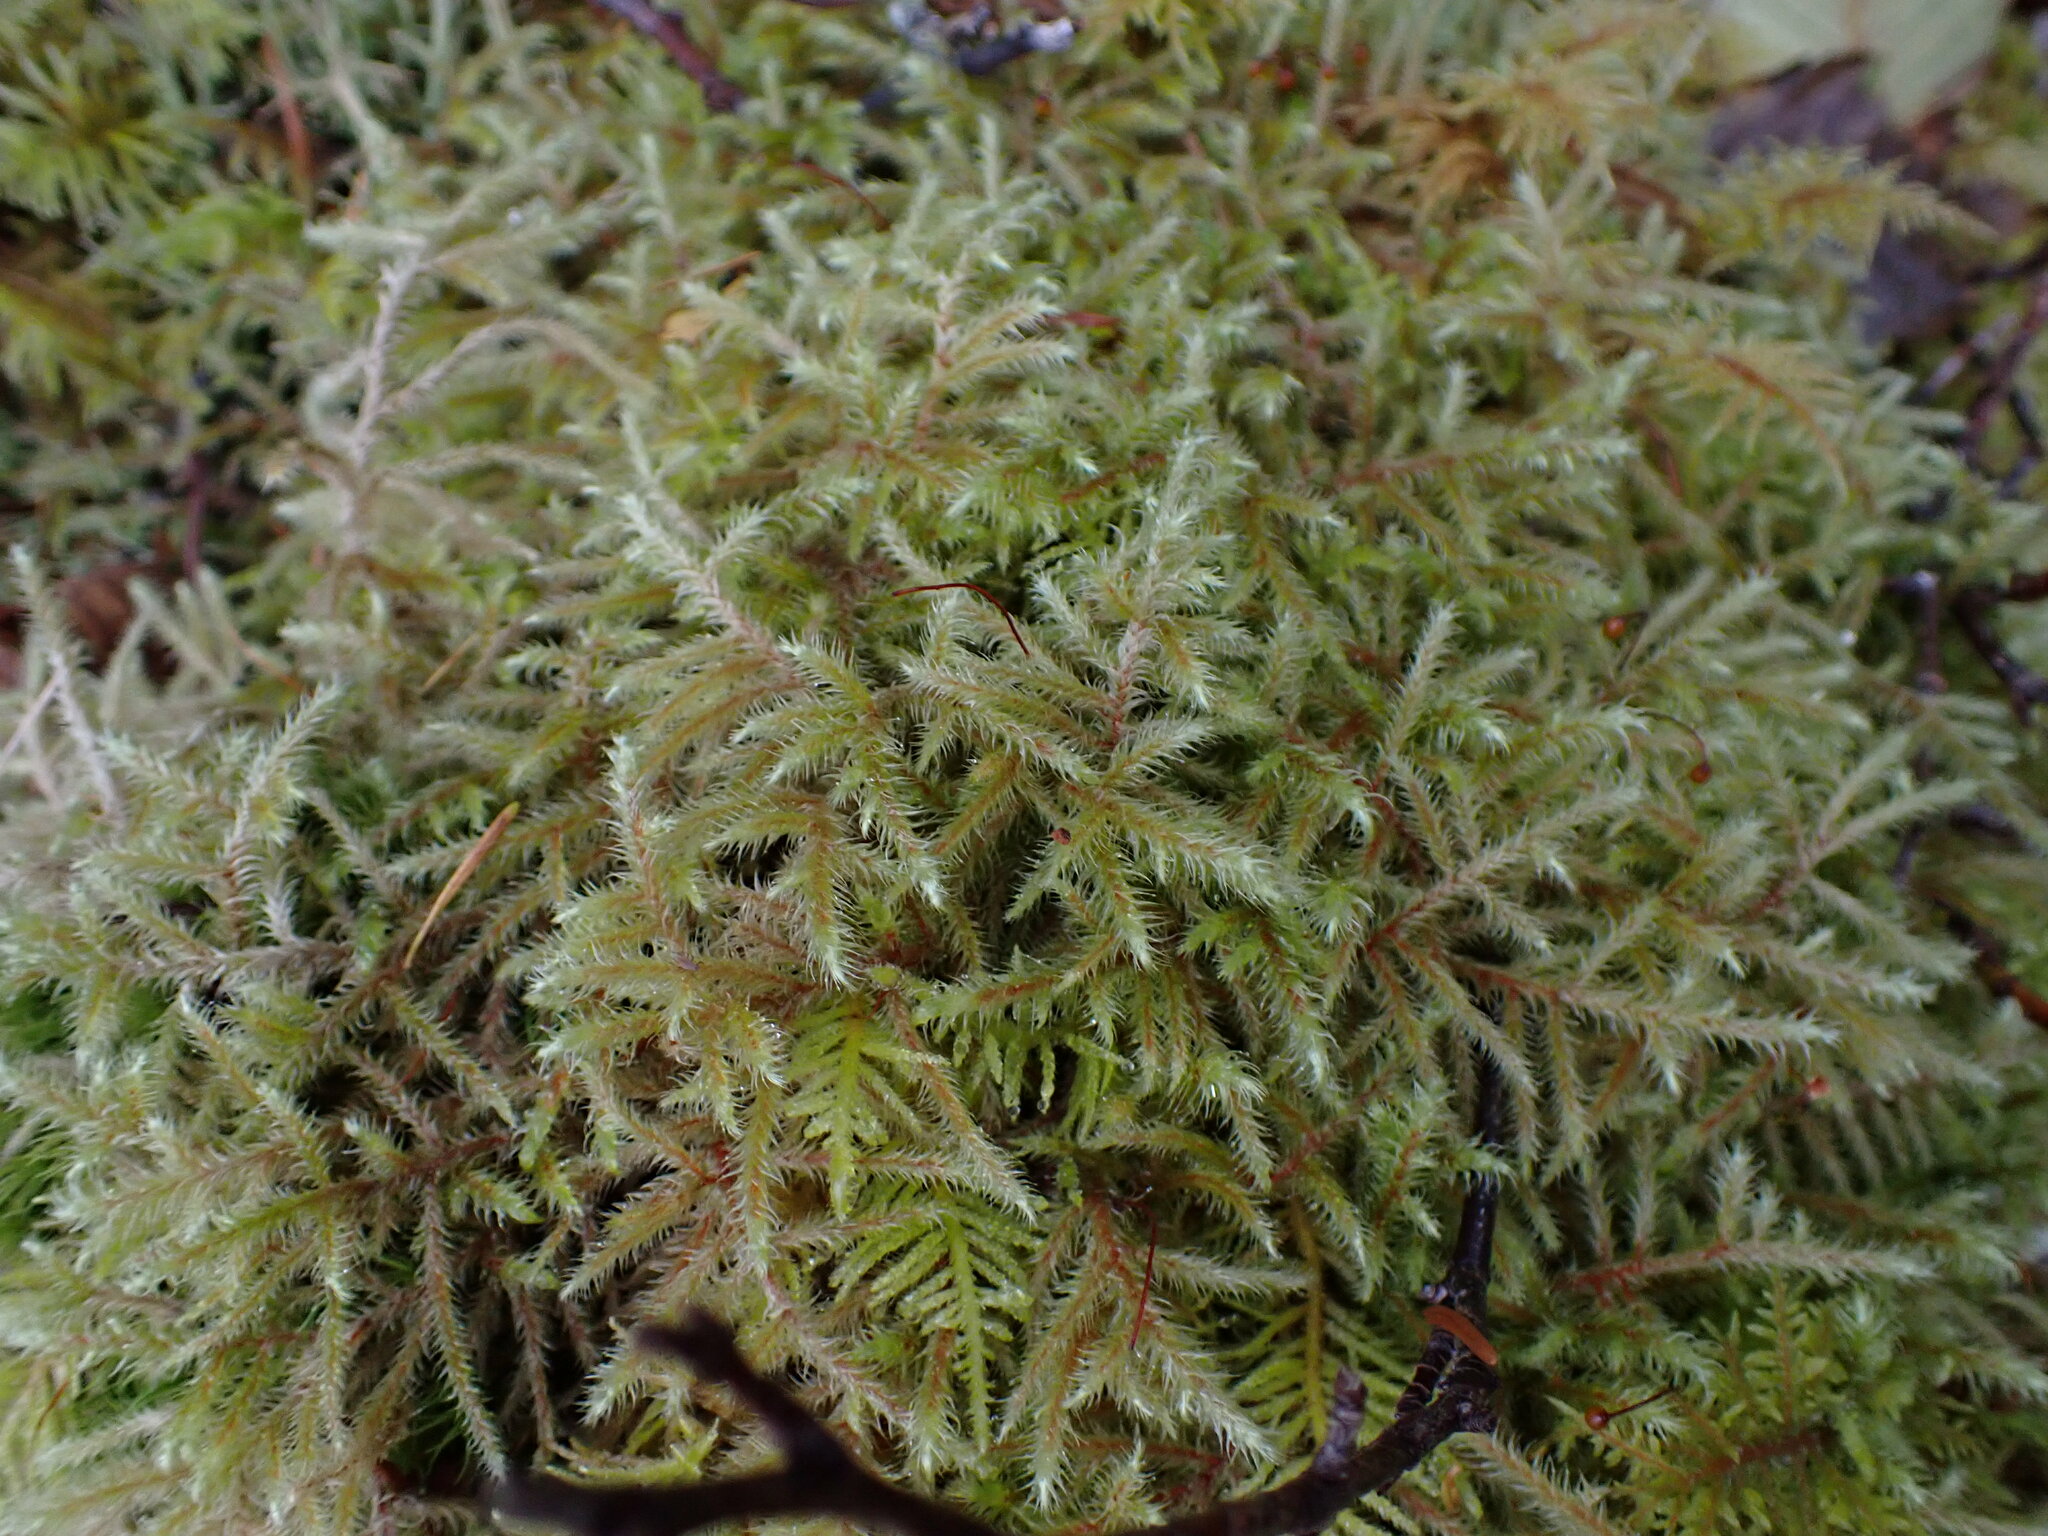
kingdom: Plantae
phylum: Bryophyta
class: Bryopsida
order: Hypnales
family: Hylocomiaceae
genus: Rhytidiadelphus
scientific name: Rhytidiadelphus loreus
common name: Lanky moss
